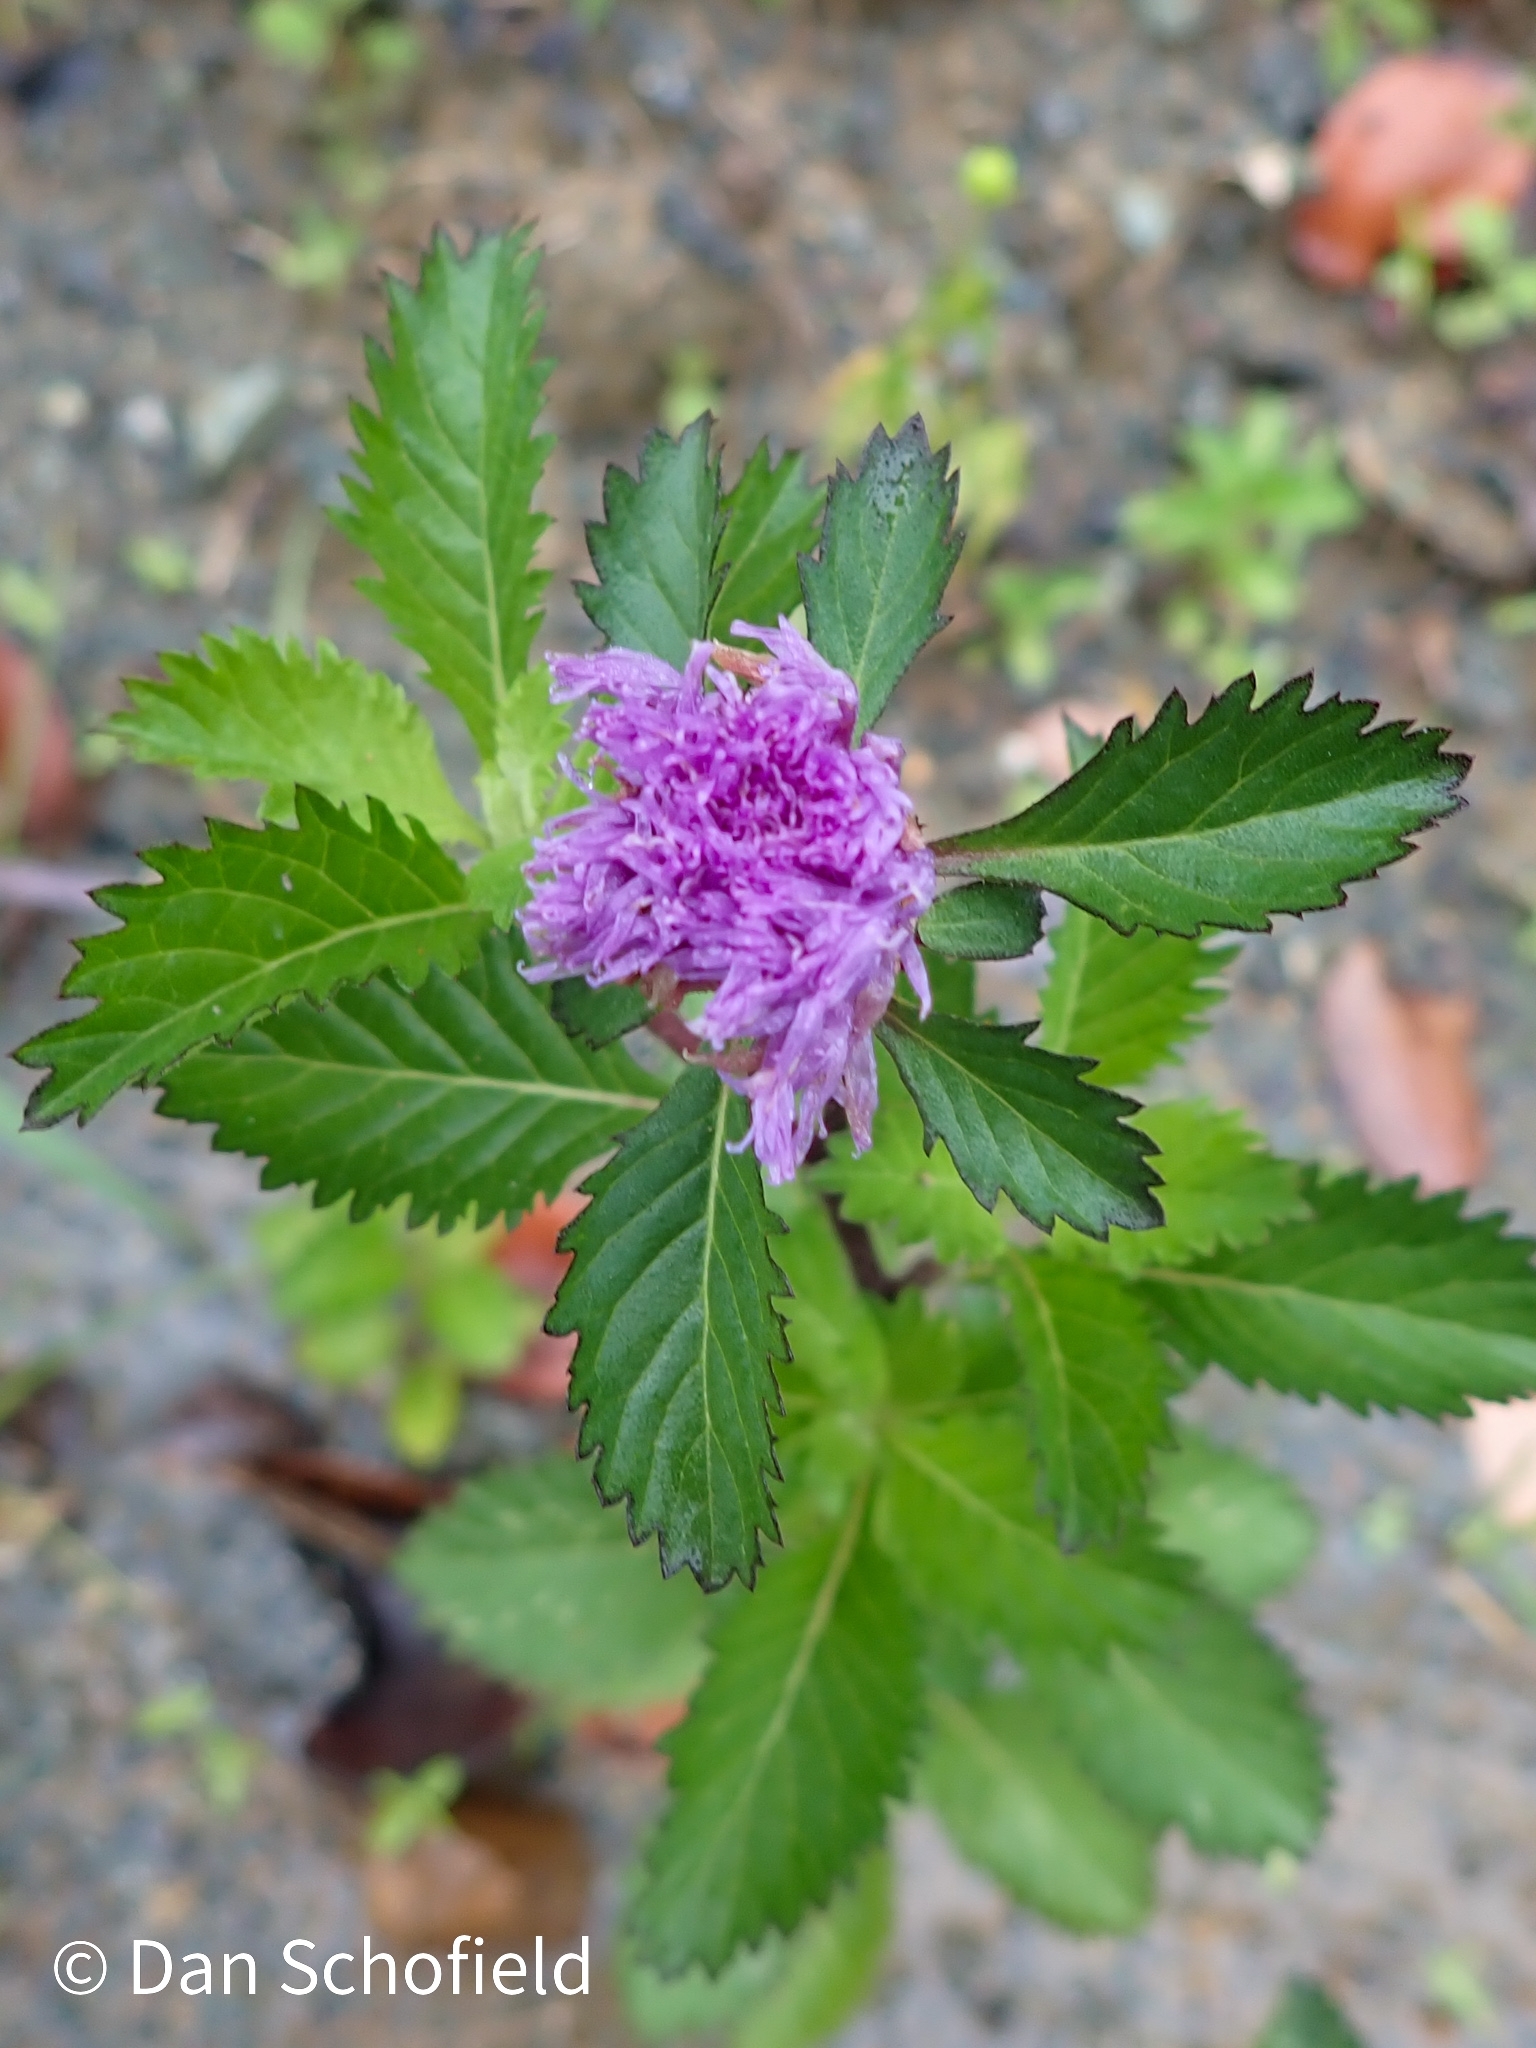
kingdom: Plantae
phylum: Tracheophyta
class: Magnoliopsida
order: Asterales
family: Asteraceae
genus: Centratherum
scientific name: Centratherum punctatum
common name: Larkdaisy
